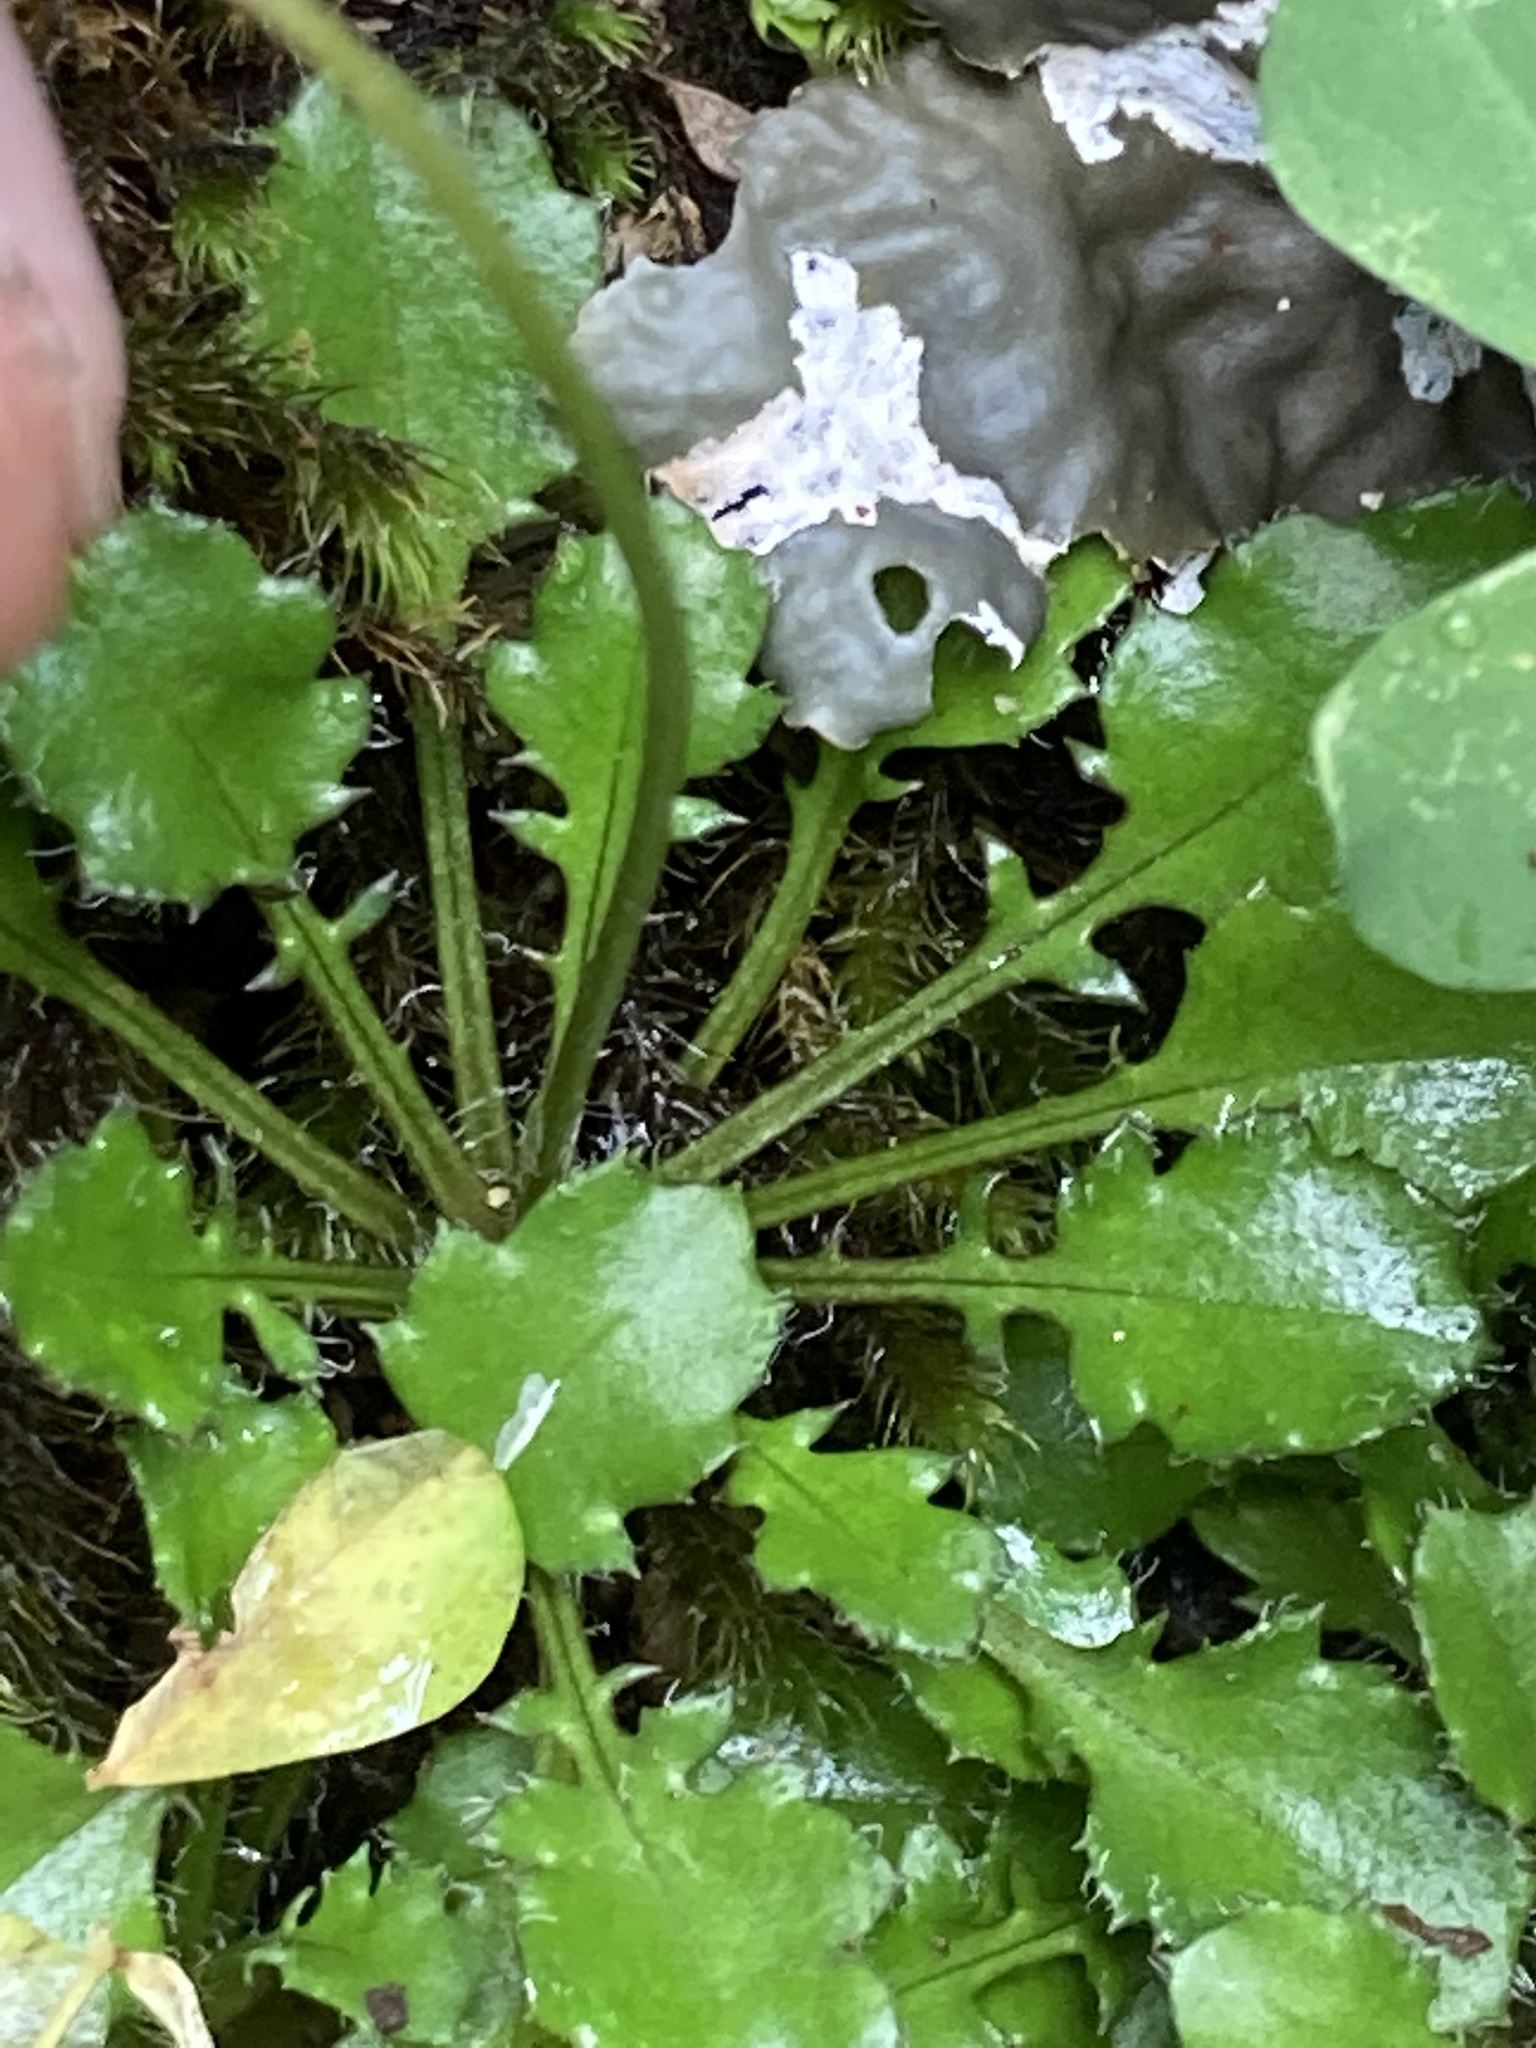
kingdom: Plantae
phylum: Tracheophyta
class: Magnoliopsida
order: Asterales
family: Asteraceae
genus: Lagenophora
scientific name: Lagenophora pumila
